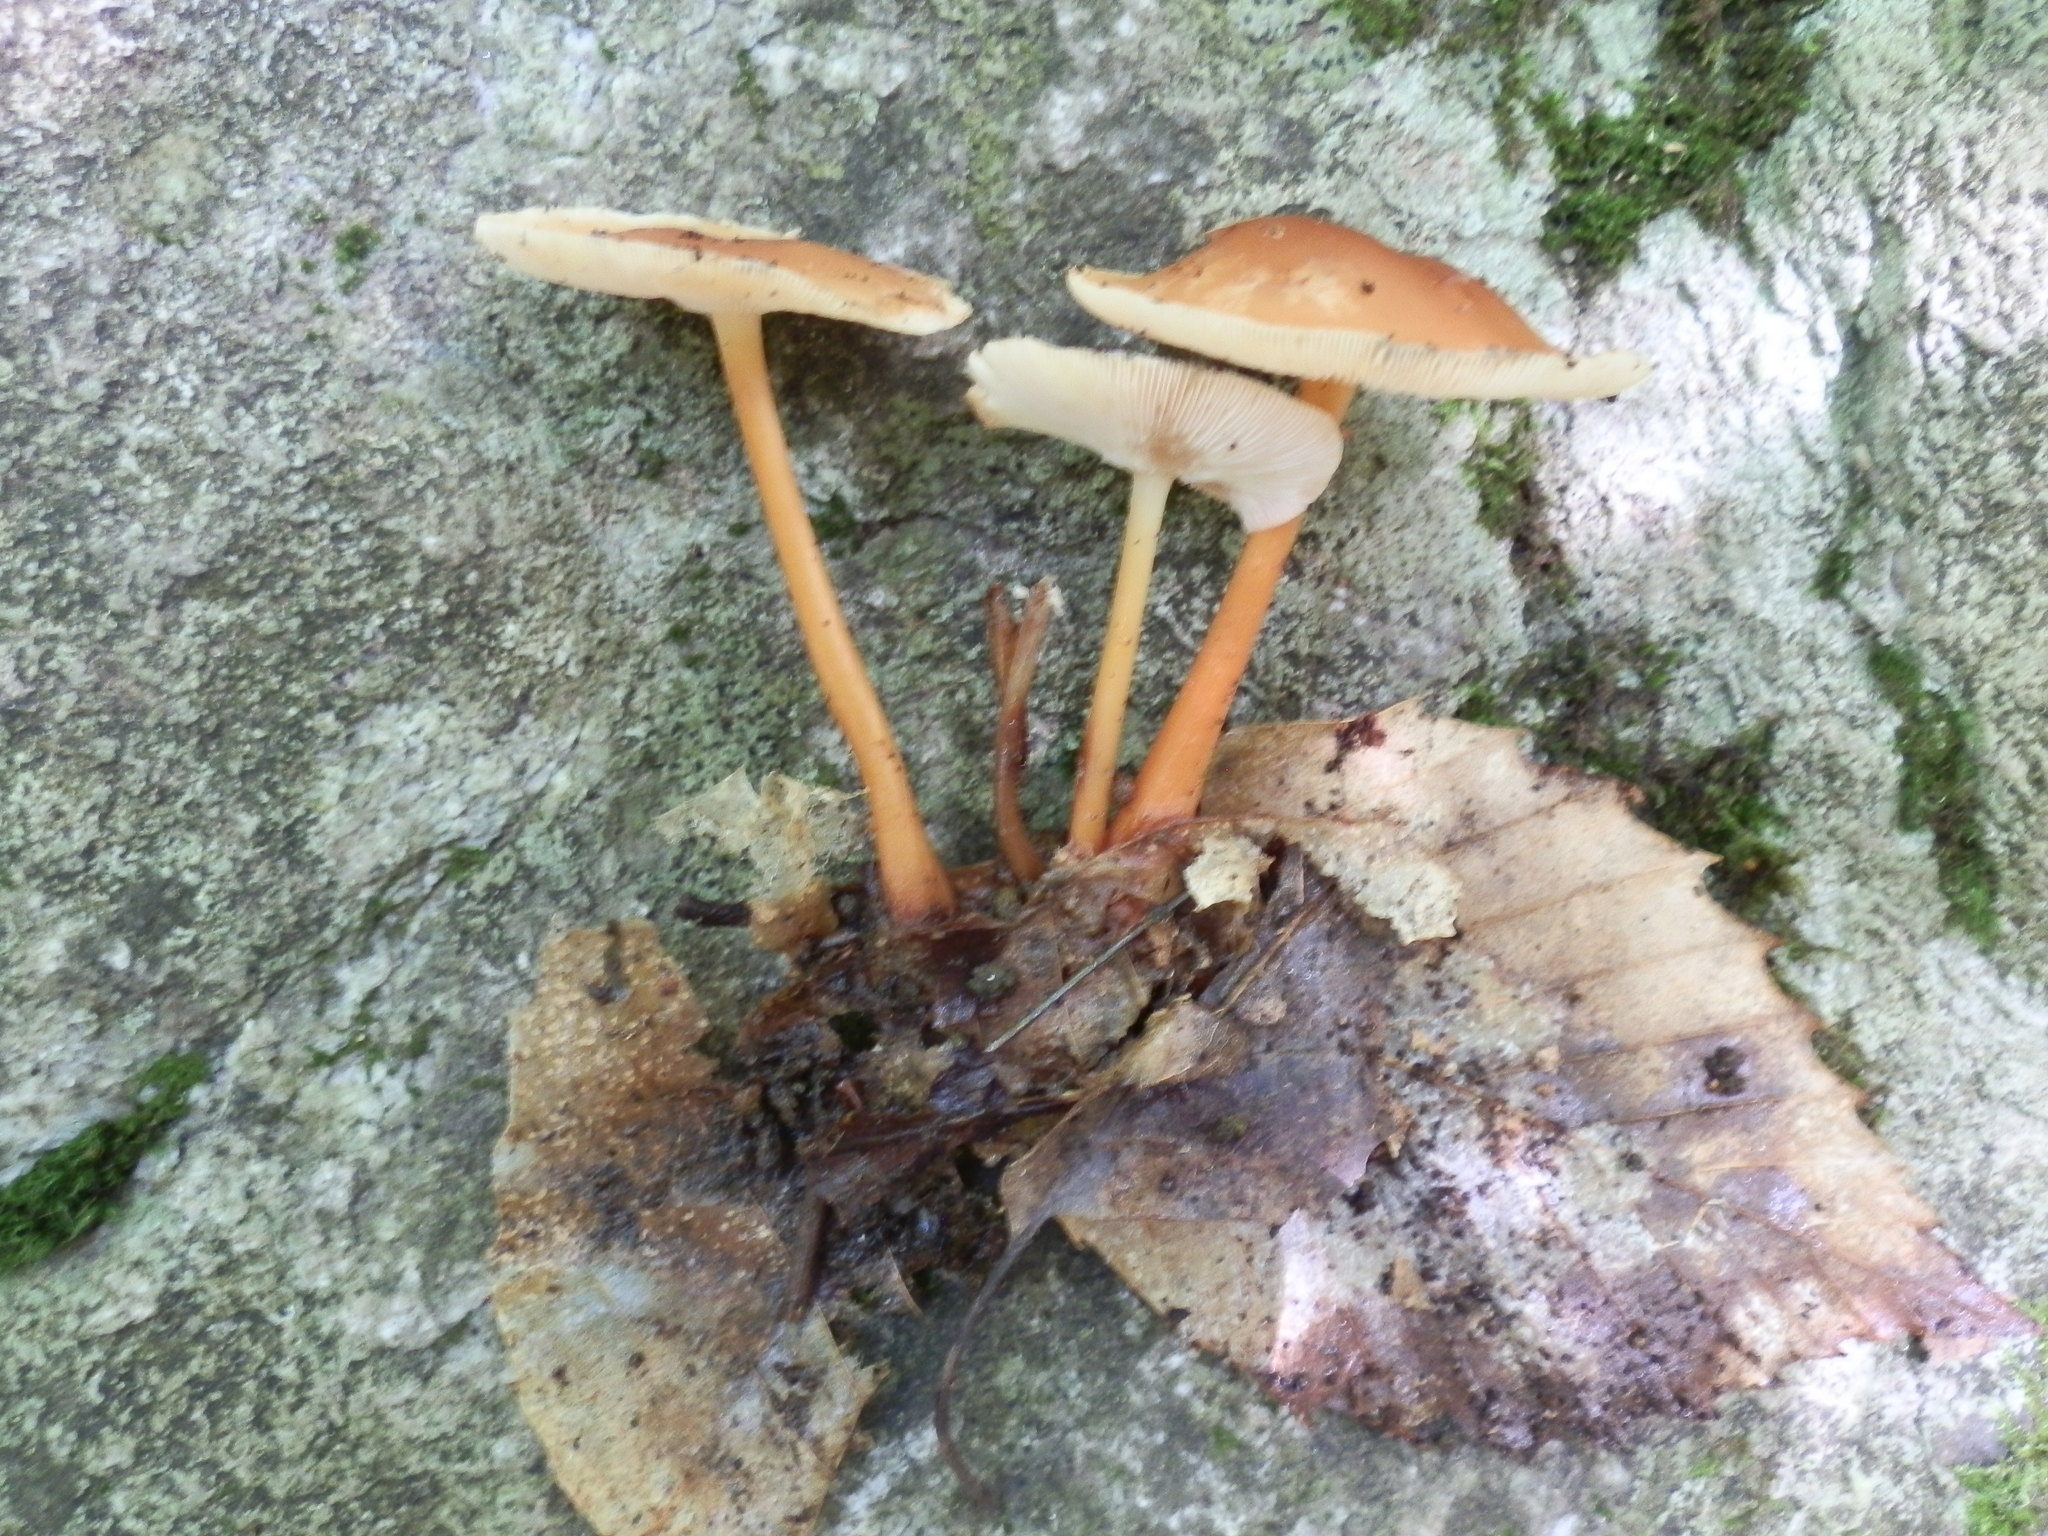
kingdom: Fungi
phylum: Basidiomycota
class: Agaricomycetes
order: Agaricales
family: Omphalotaceae
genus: Collybiopsis
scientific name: Collybiopsis subnuda
